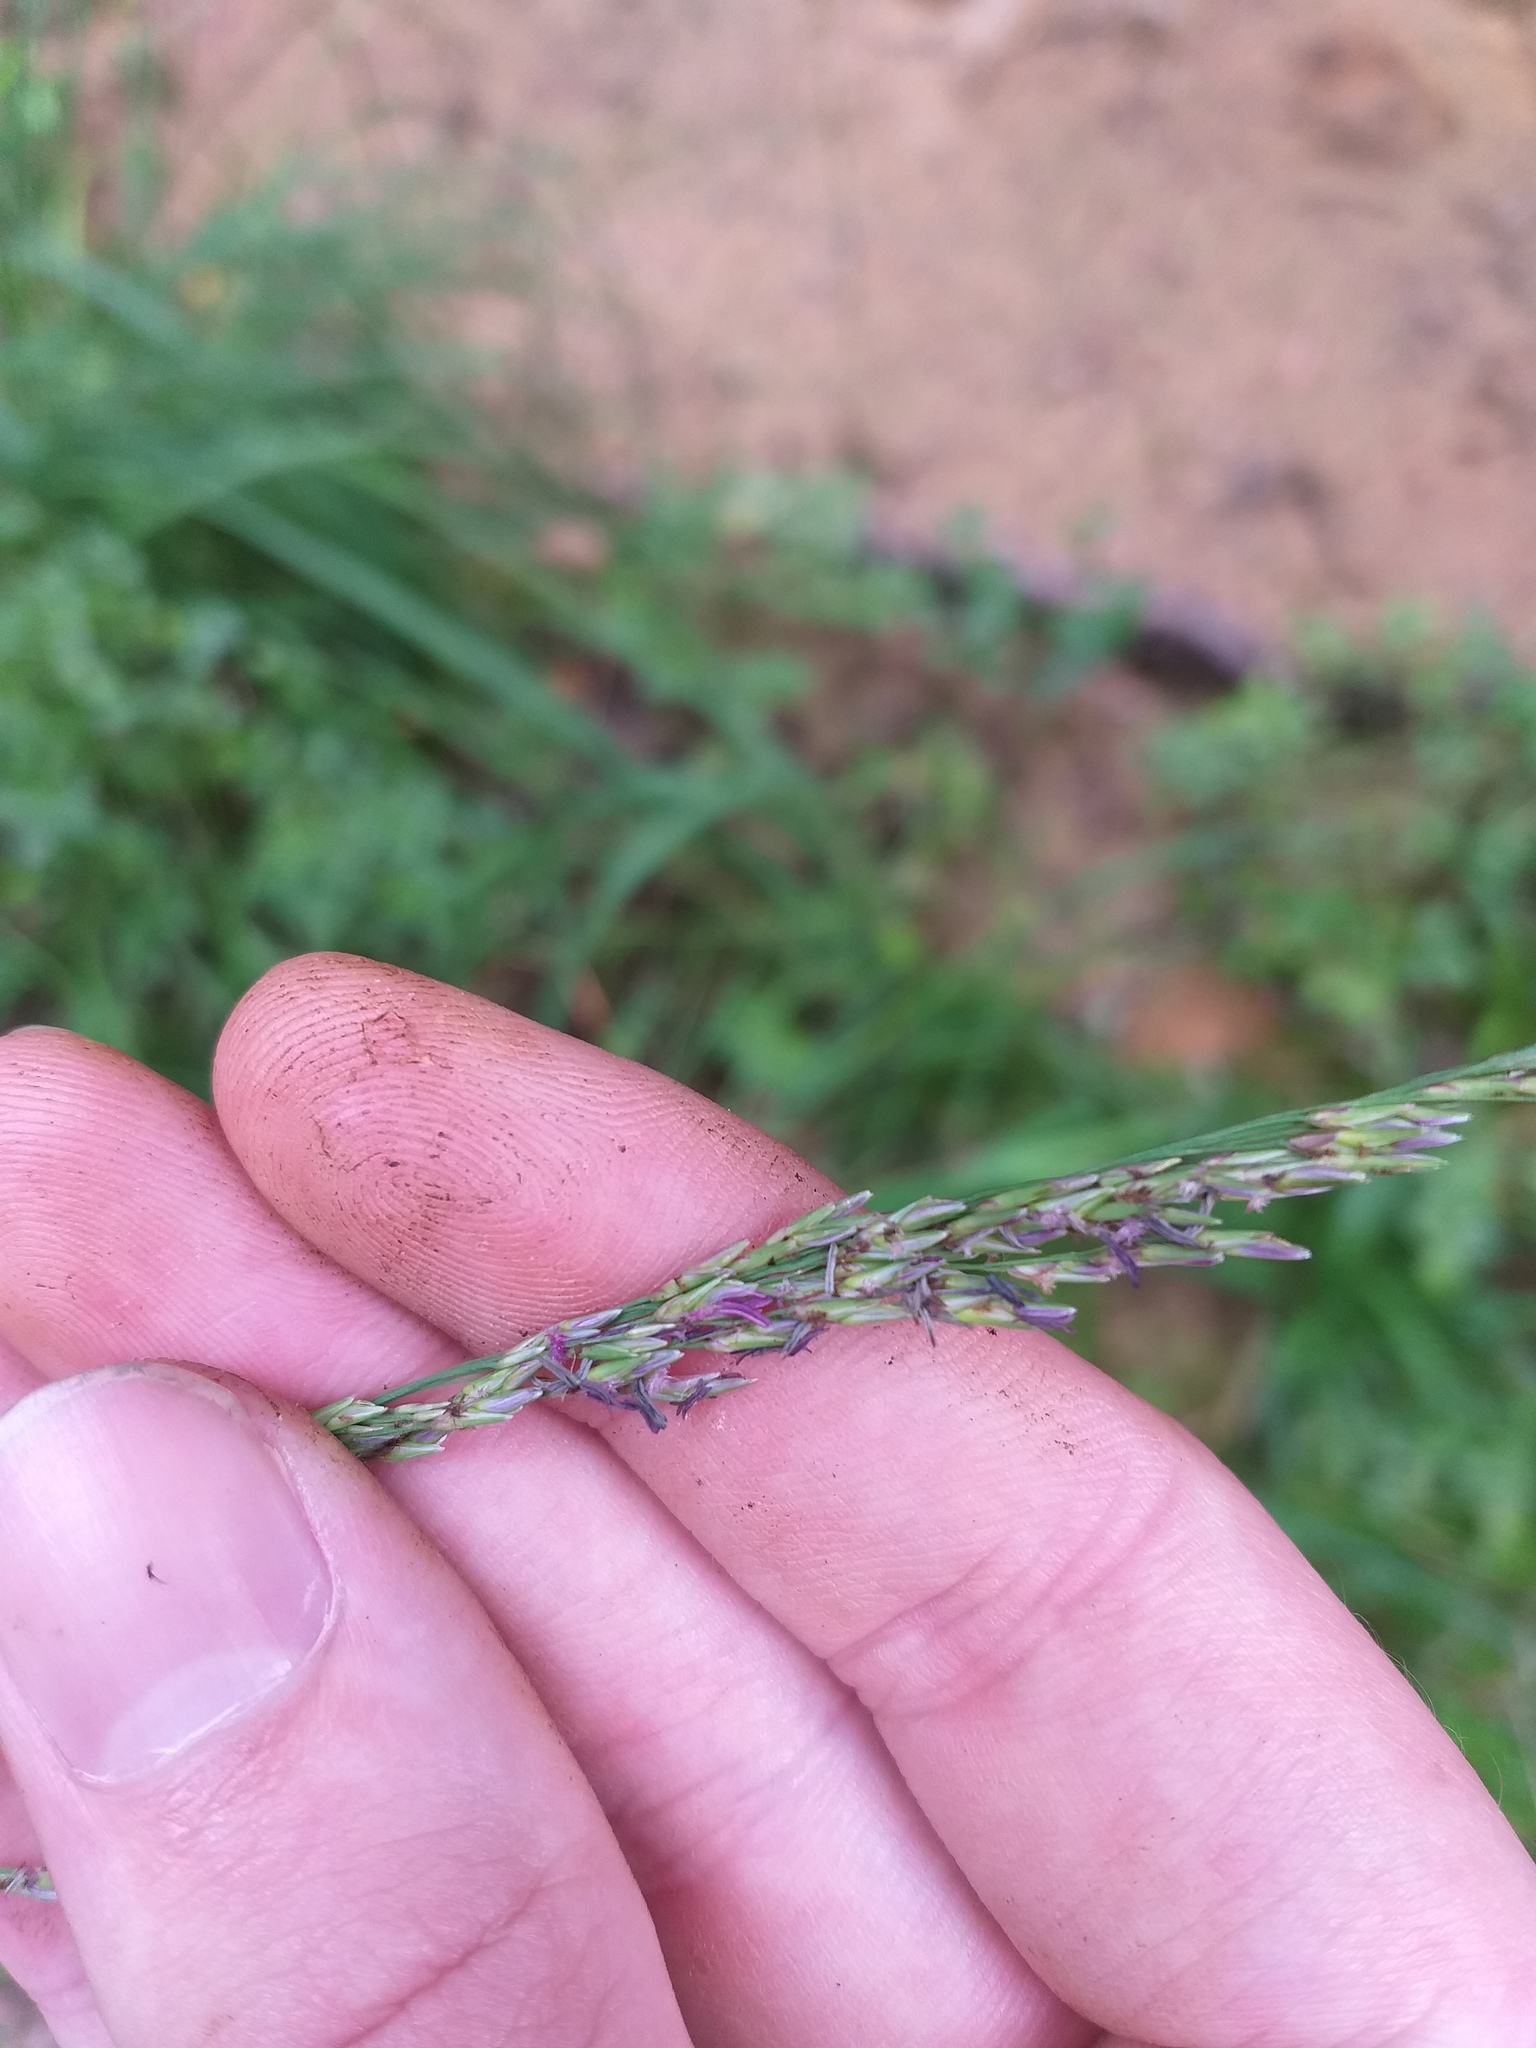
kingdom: Plantae
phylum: Tracheophyta
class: Liliopsida
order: Poales
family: Poaceae
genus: Molinia
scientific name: Molinia caerulea
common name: Purple moor-grass
